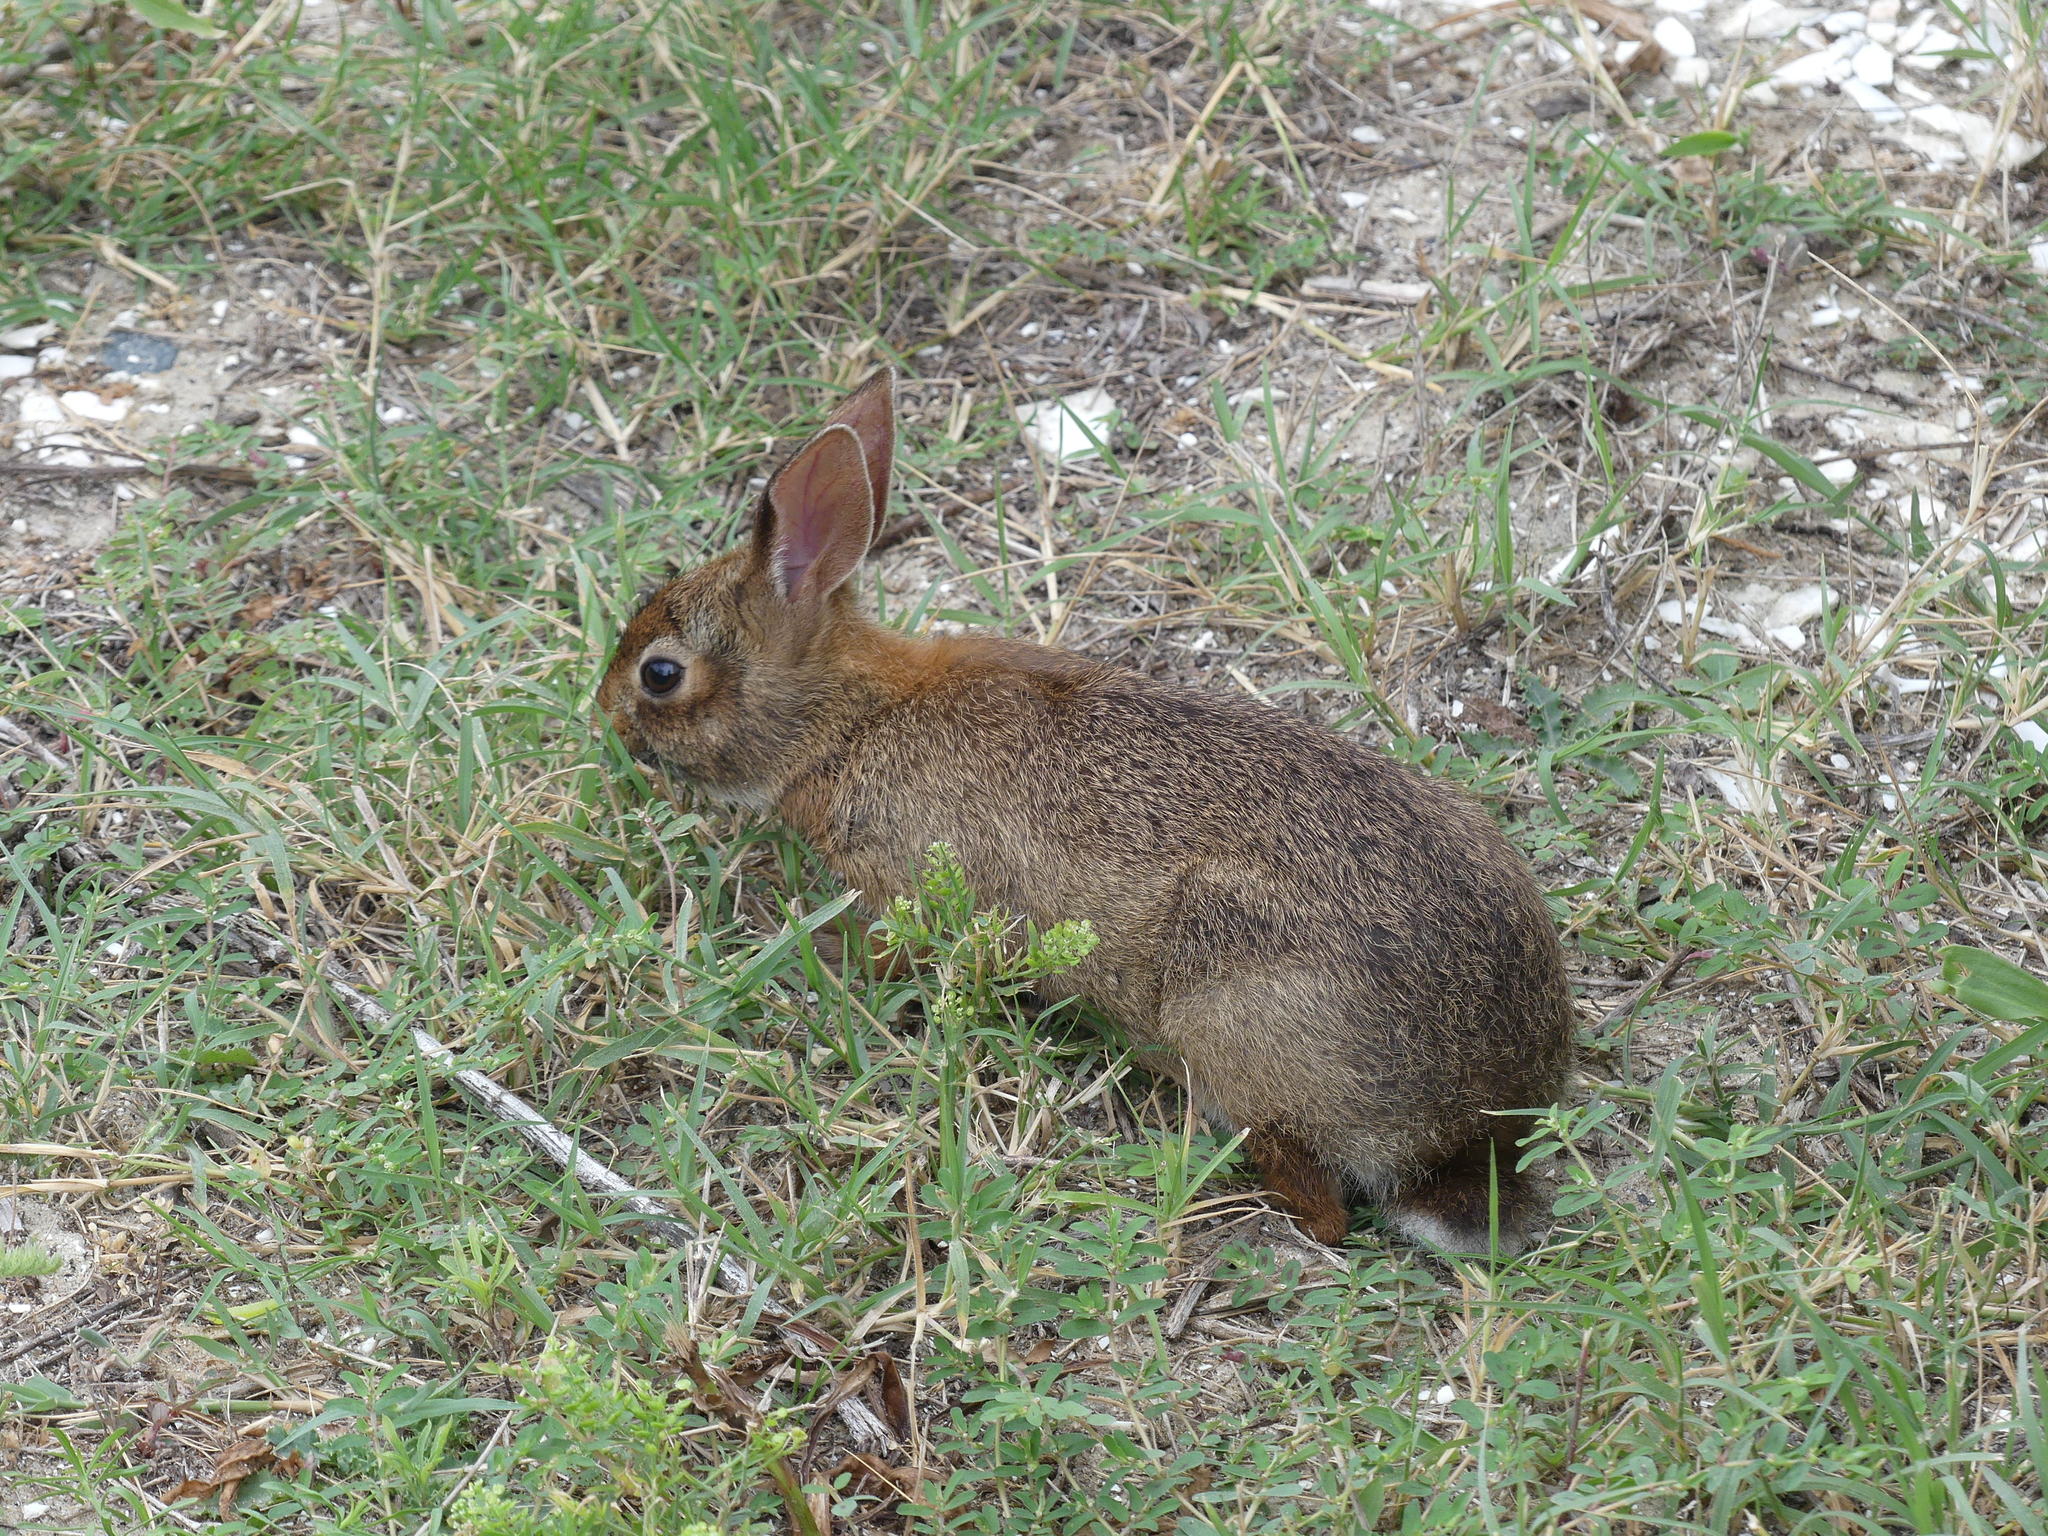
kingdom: Animalia
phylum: Chordata
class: Mammalia
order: Lagomorpha
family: Leporidae
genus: Sylvilagus
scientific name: Sylvilagus floridanus
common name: Eastern cottontail
